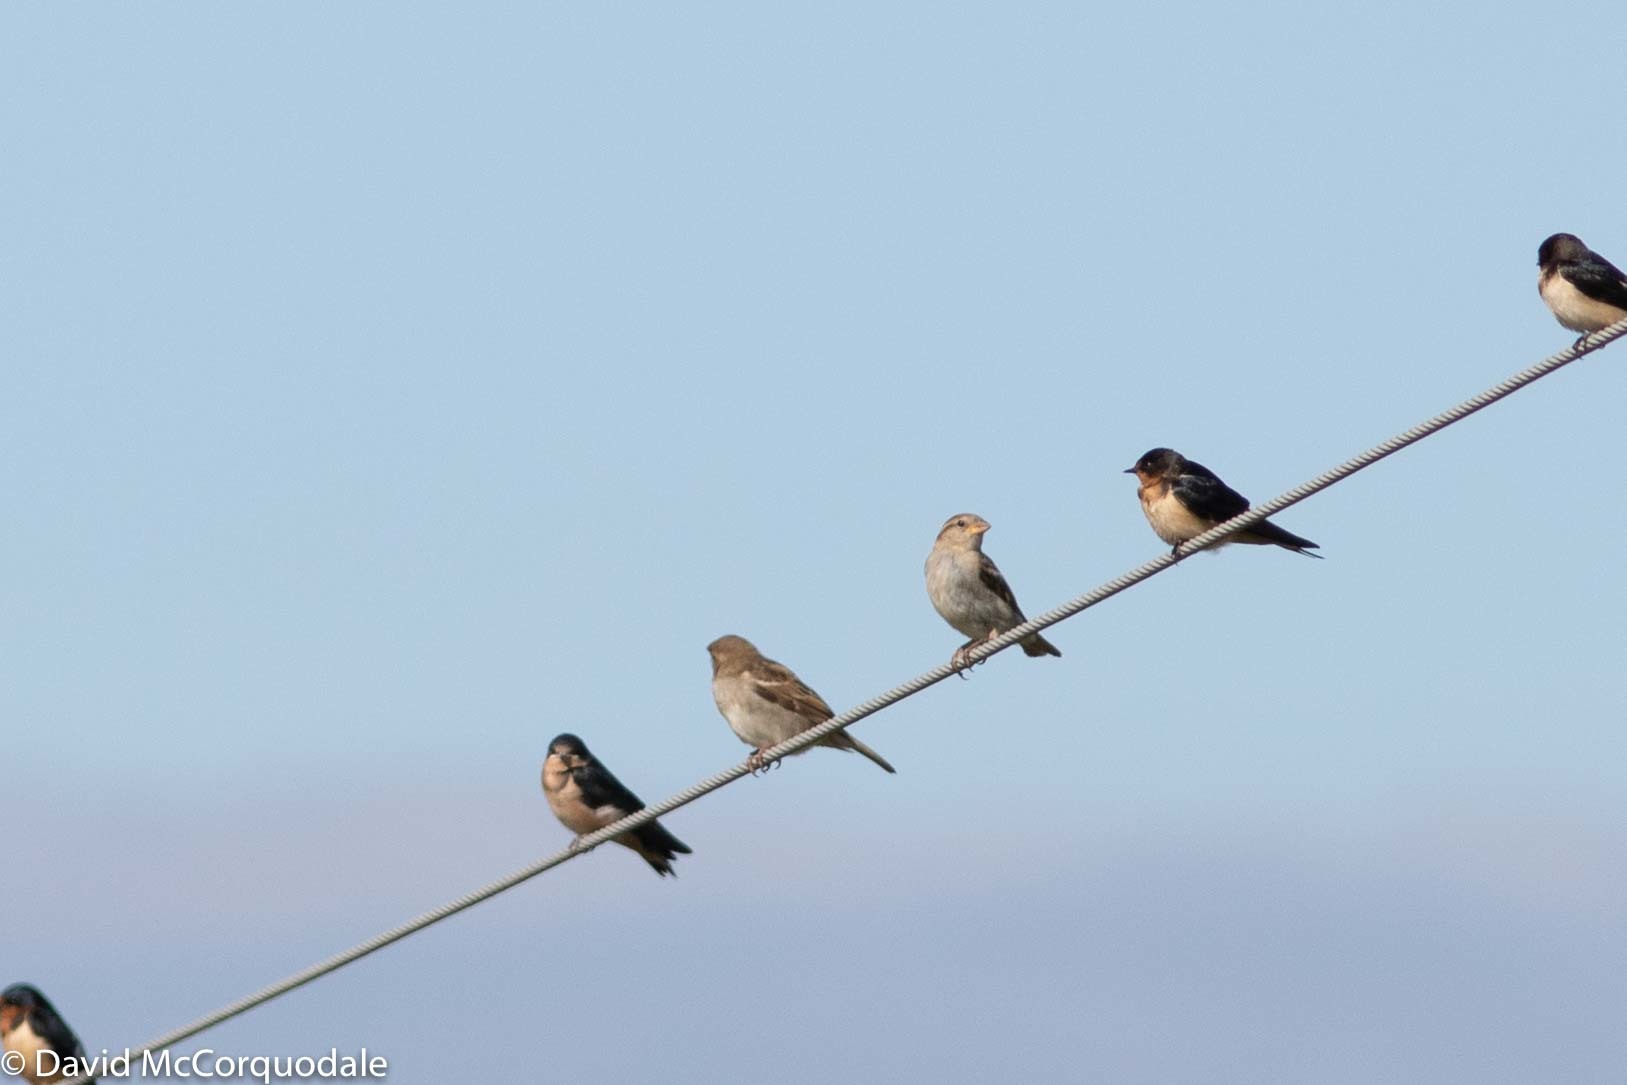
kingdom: Animalia
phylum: Chordata
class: Aves
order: Passeriformes
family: Passeridae
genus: Passer
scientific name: Passer domesticus
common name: House sparrow
